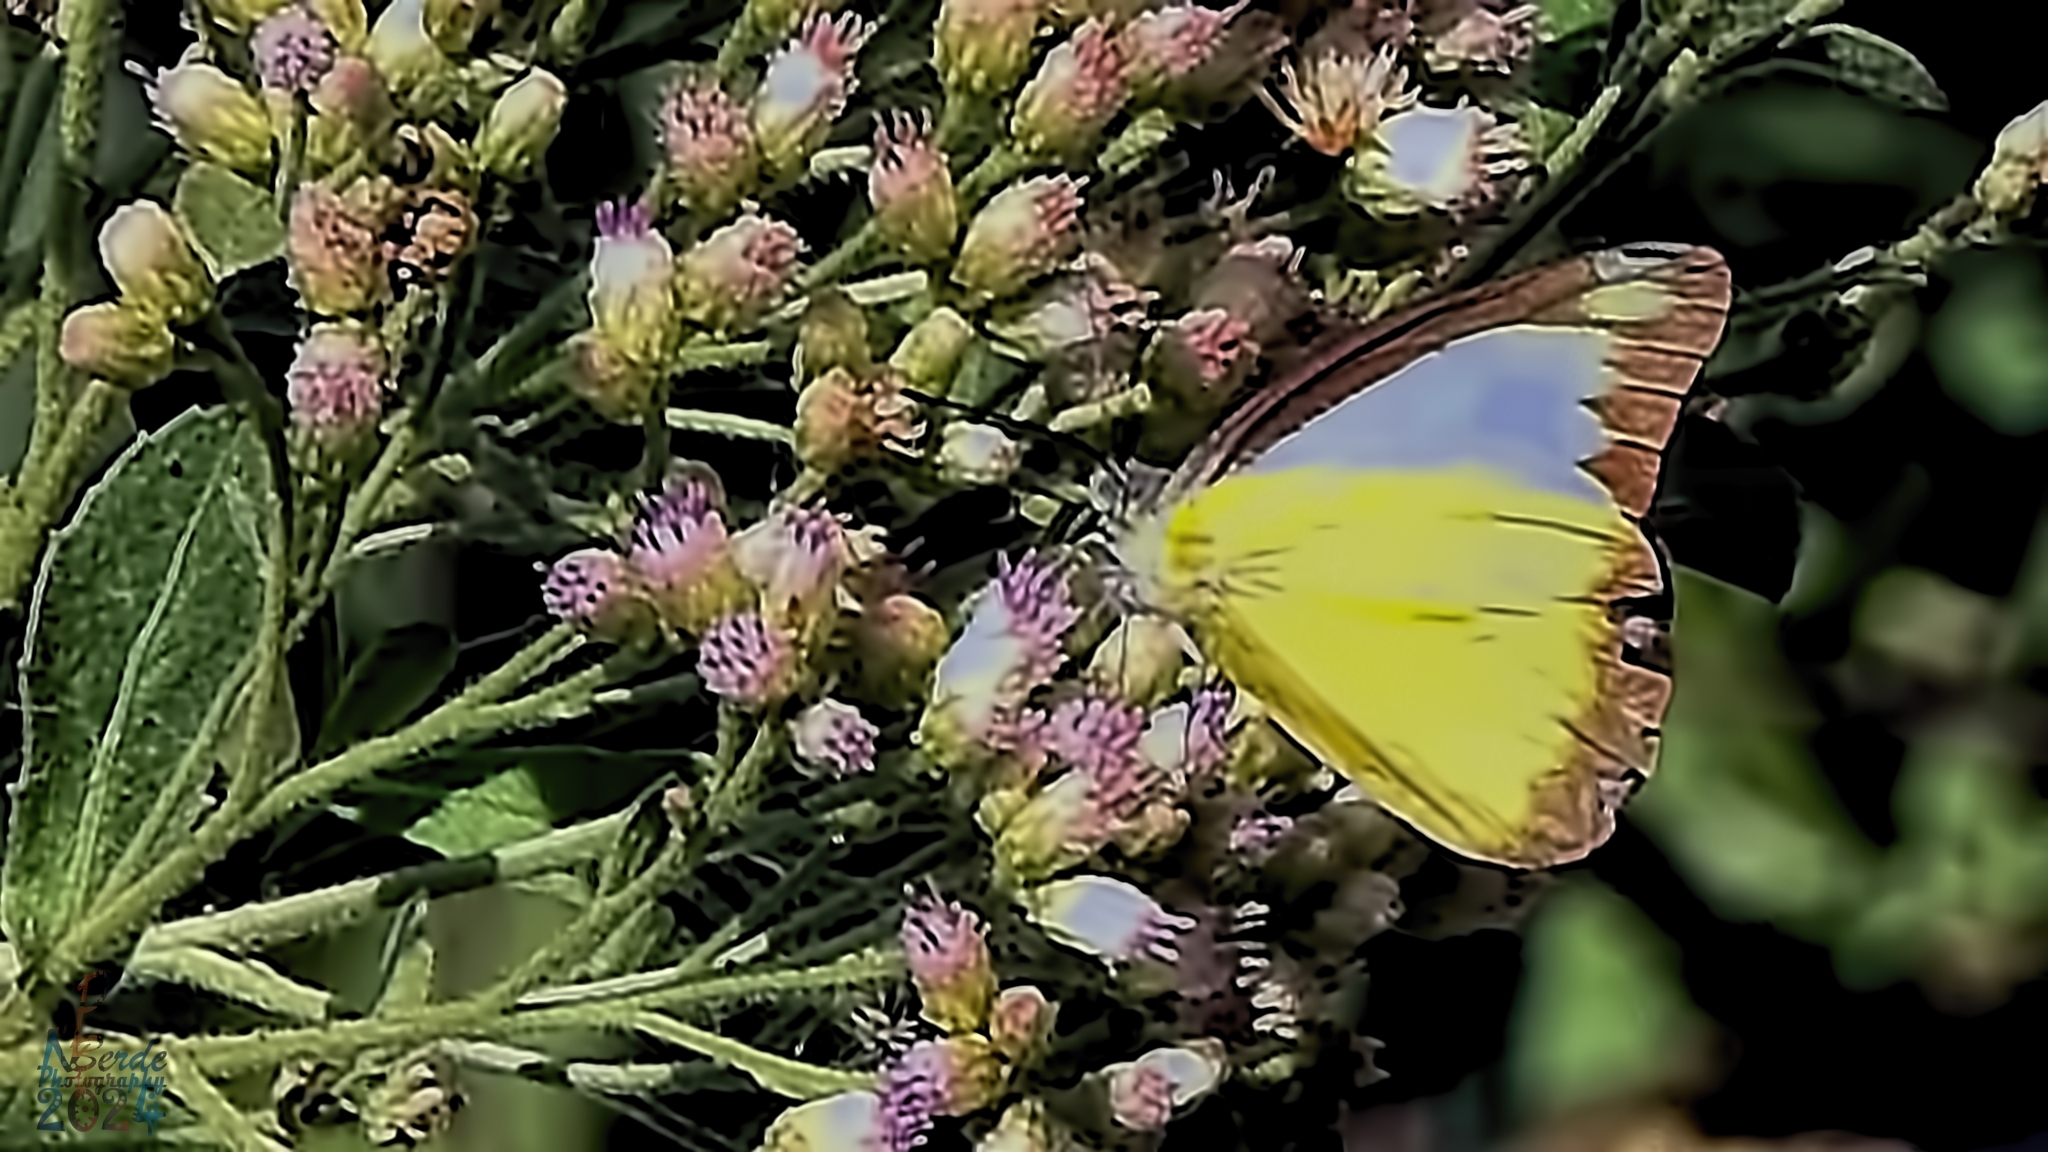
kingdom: Animalia
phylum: Arthropoda
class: Insecta
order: Lepidoptera
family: Pieridae
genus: Appias
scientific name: Appias lyncida
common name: Chocolate albatross
